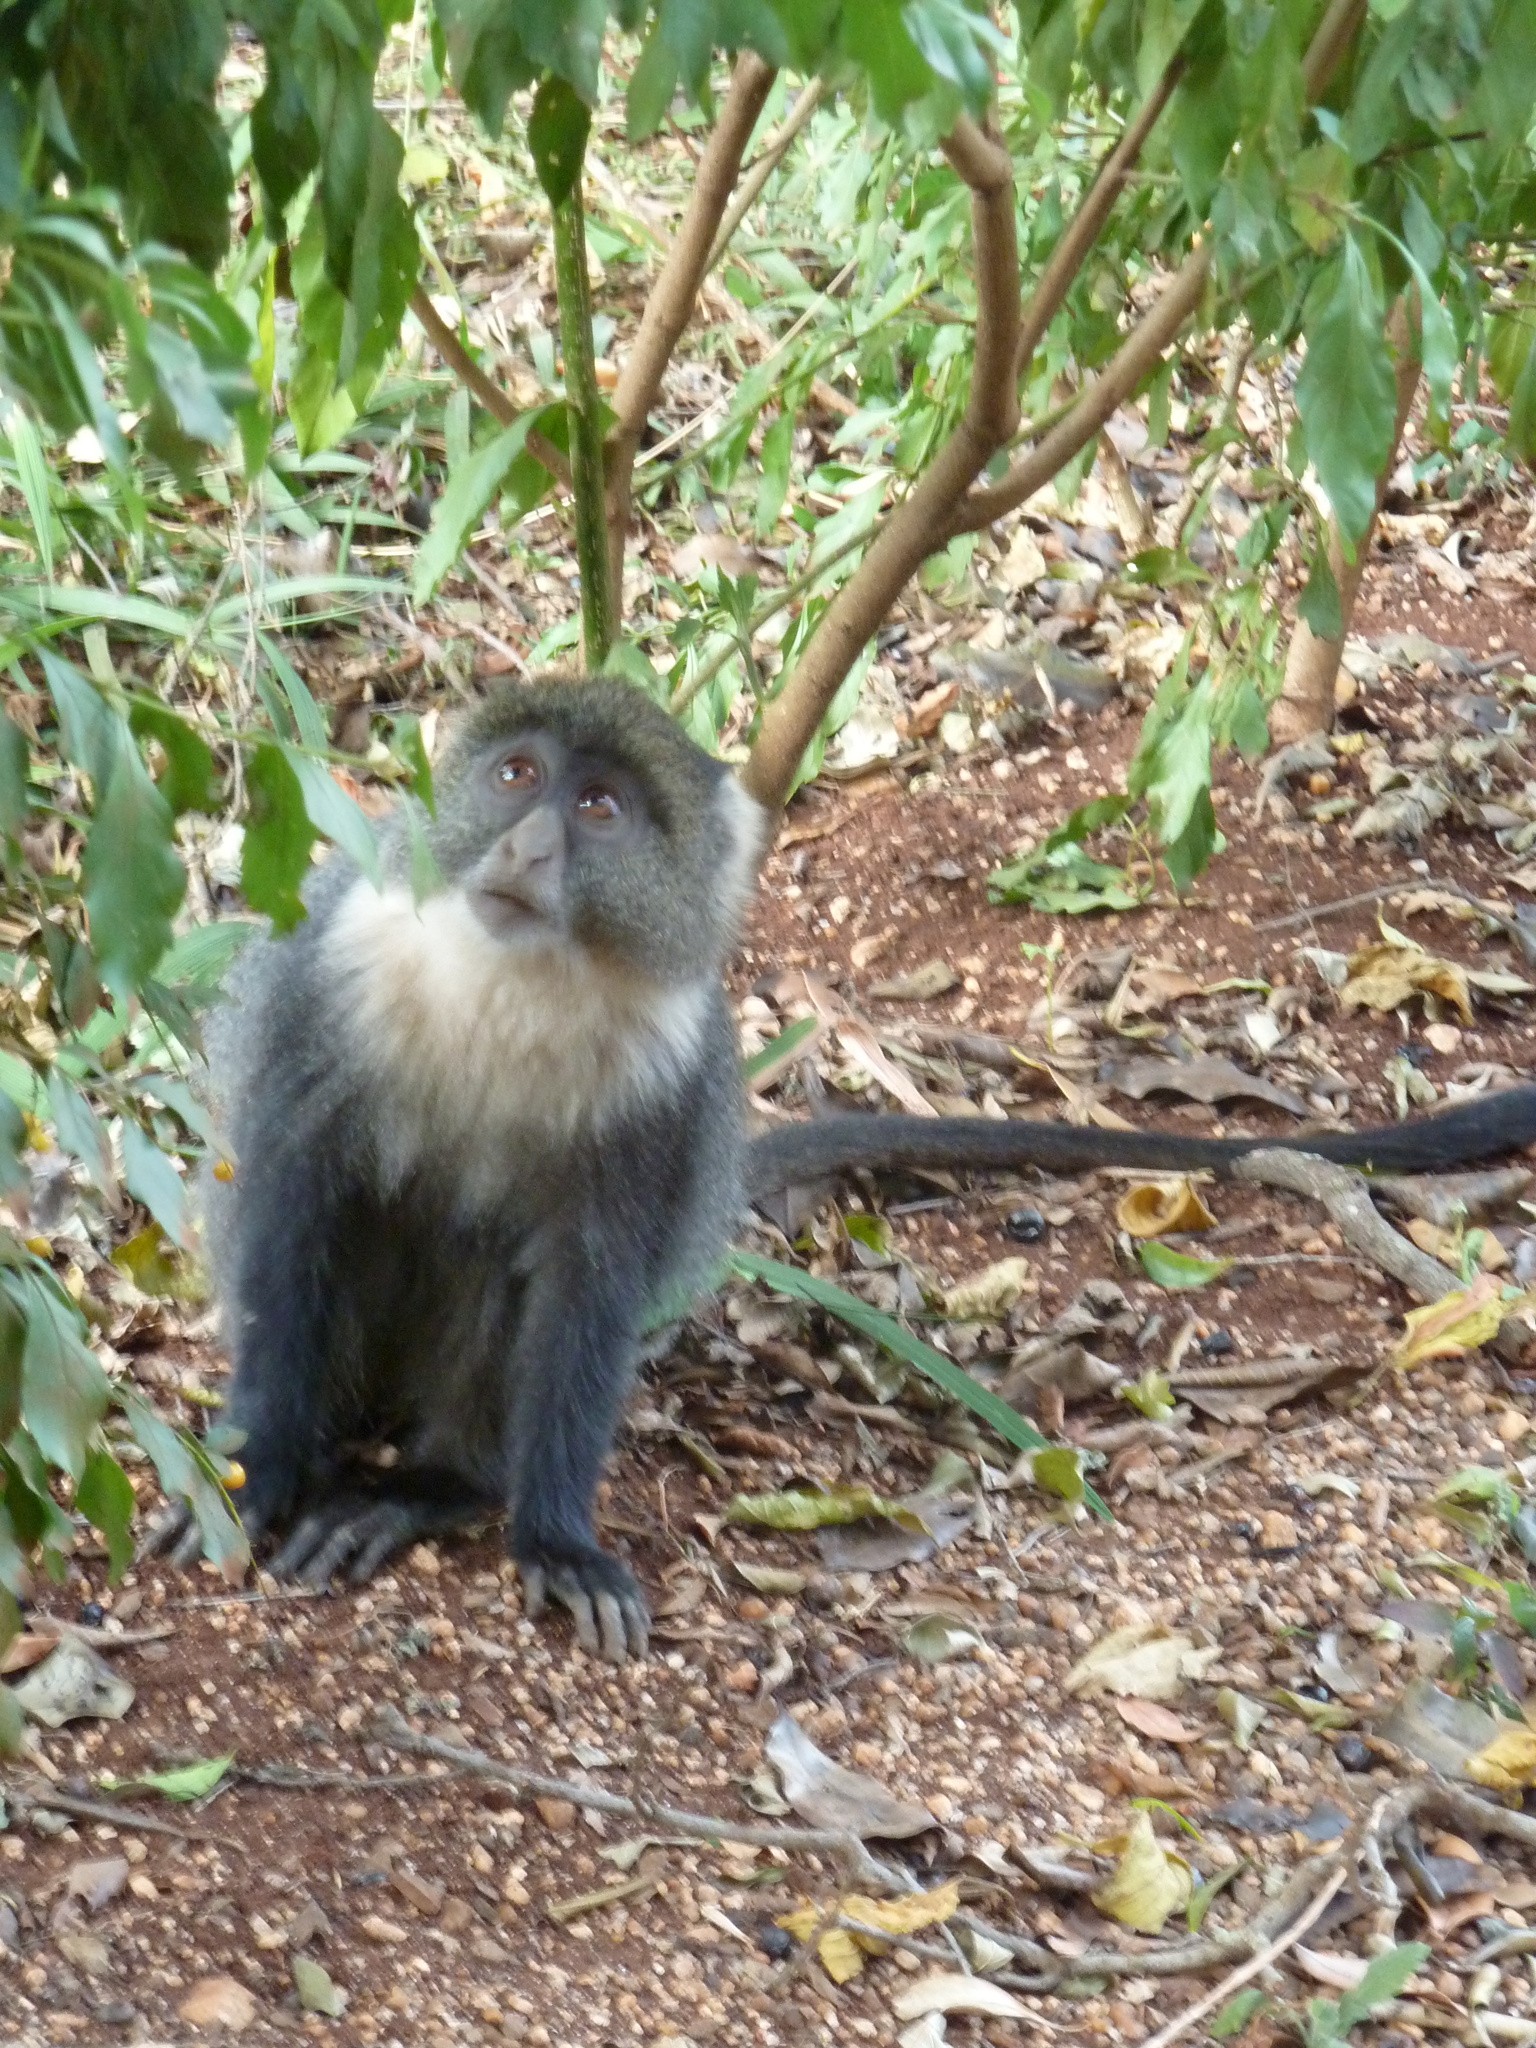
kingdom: Animalia
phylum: Chordata
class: Mammalia
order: Primates
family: Cercopithecidae
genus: Cercopithecus
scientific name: Cercopithecus mitis
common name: Blue monkey
